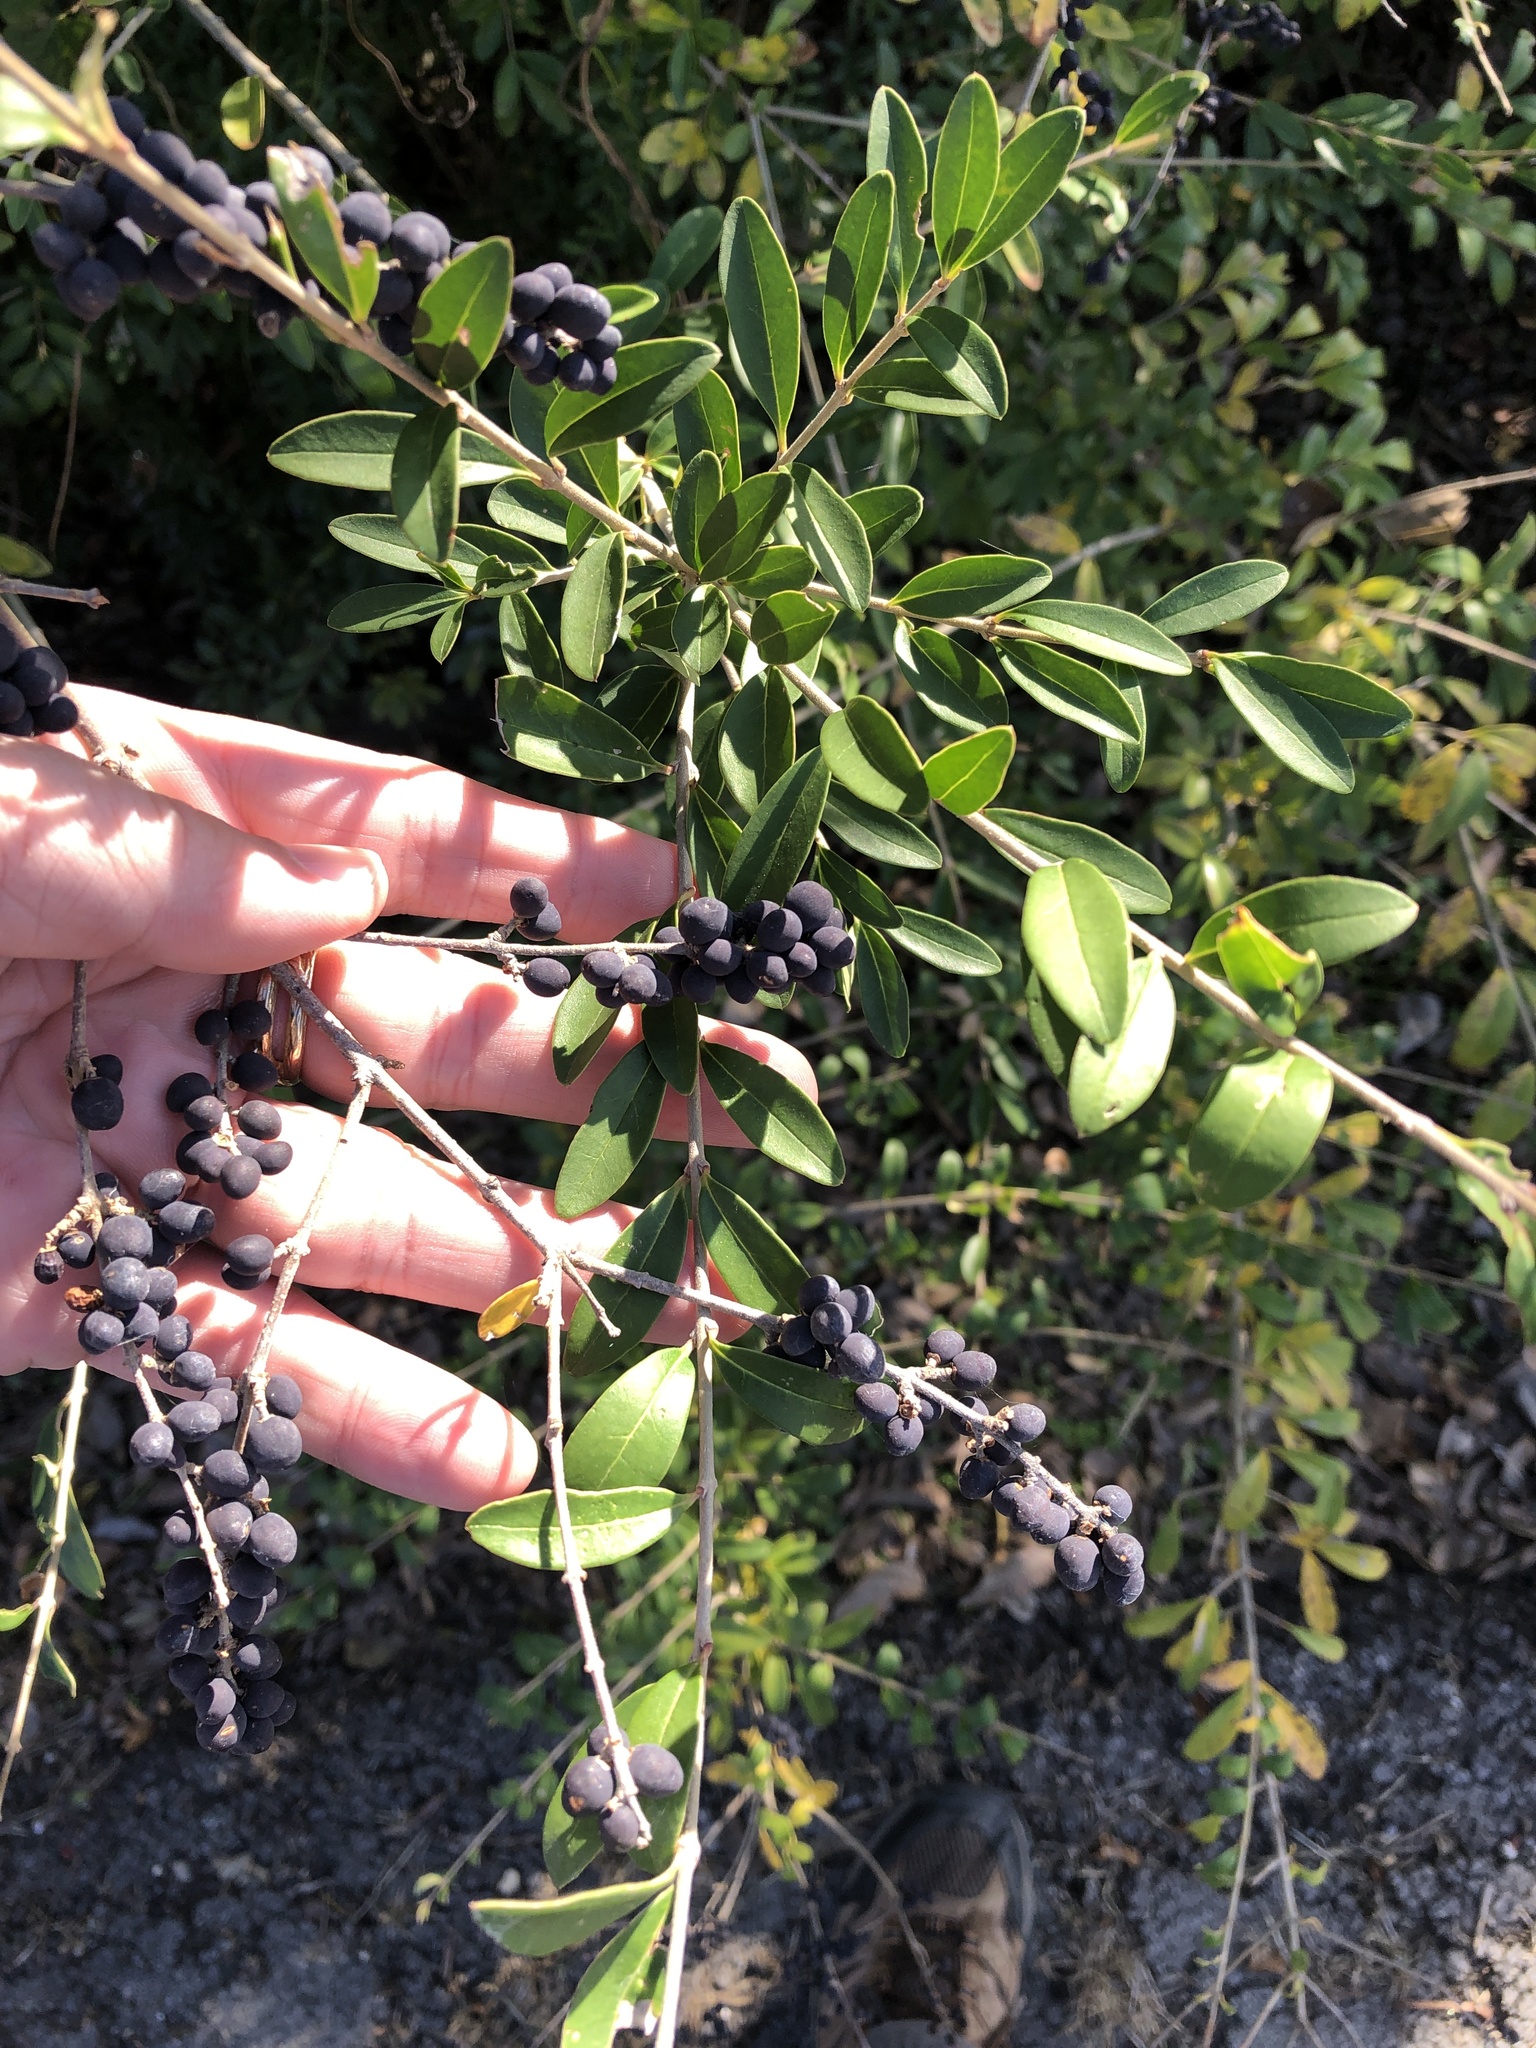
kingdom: Plantae
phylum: Tracheophyta
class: Magnoliopsida
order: Lamiales
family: Oleaceae
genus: Ligustrum
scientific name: Ligustrum quihoui
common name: Waxyleaf privet
